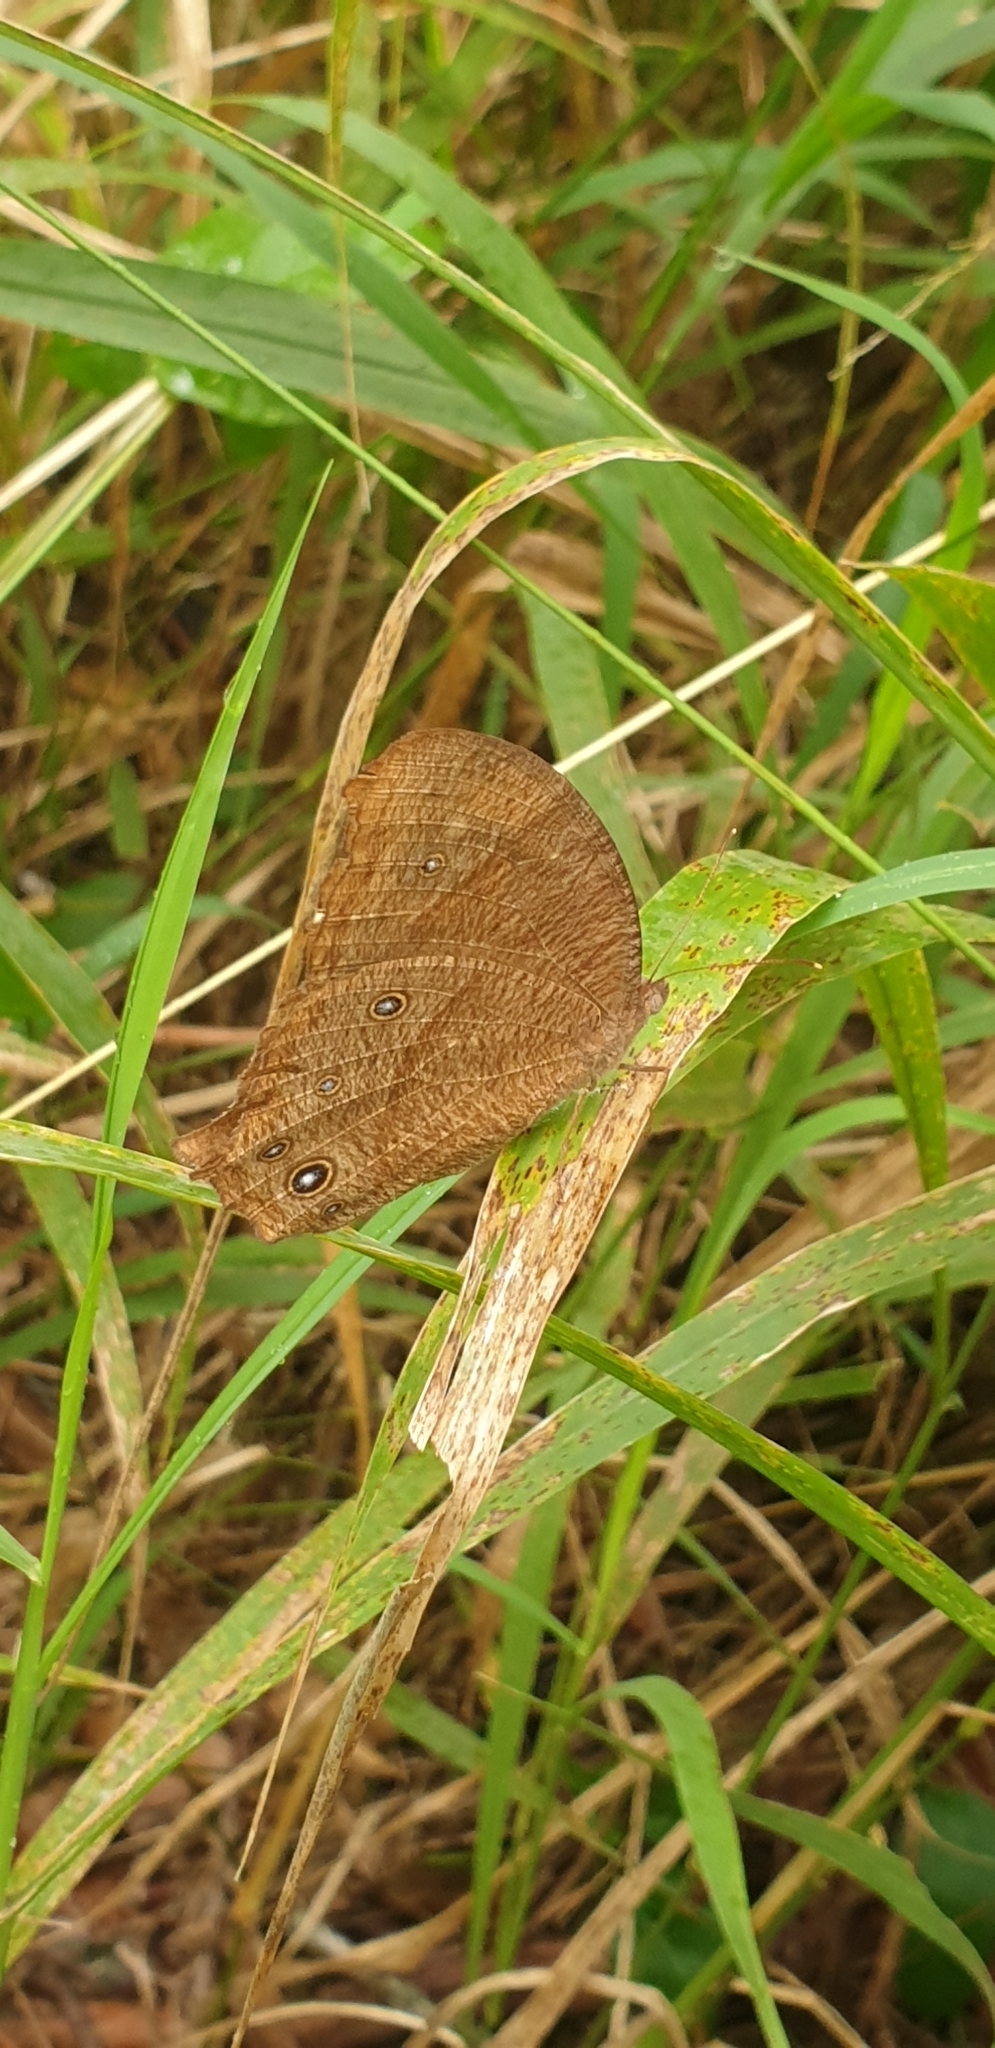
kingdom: Animalia
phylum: Arthropoda
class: Insecta
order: Lepidoptera
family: Nymphalidae
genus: Melanitis
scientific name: Melanitis leda
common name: Twilight brown
